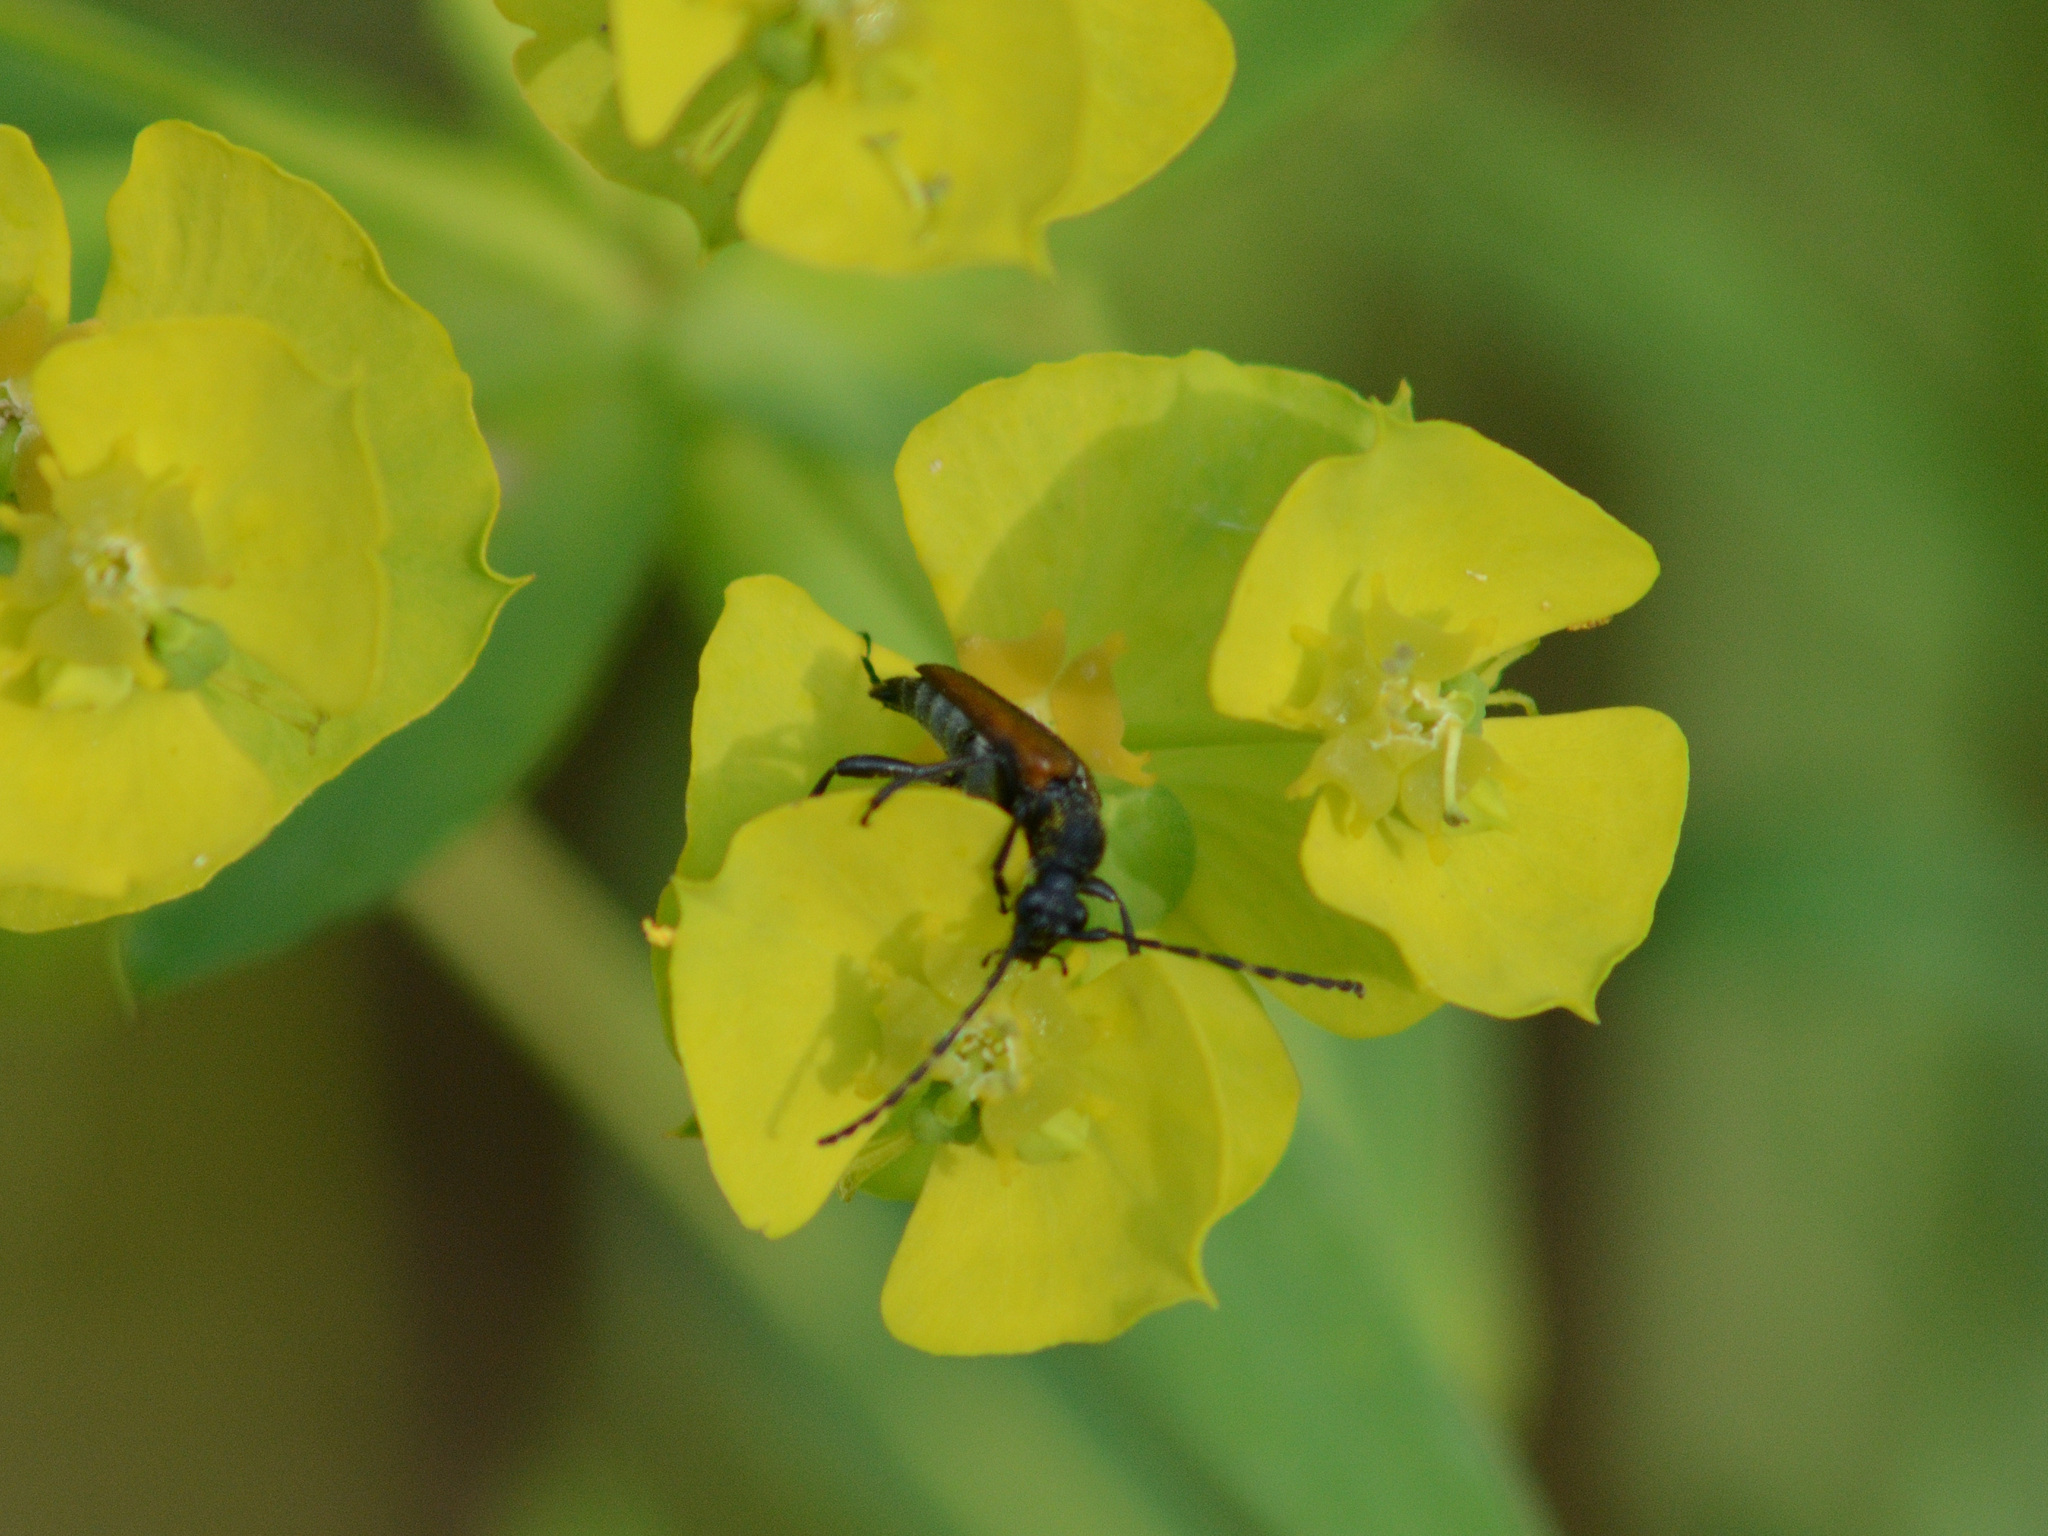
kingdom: Animalia
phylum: Arthropoda
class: Insecta
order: Coleoptera
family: Cerambycidae
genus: Paracorymbia
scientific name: Paracorymbia maculicornis
